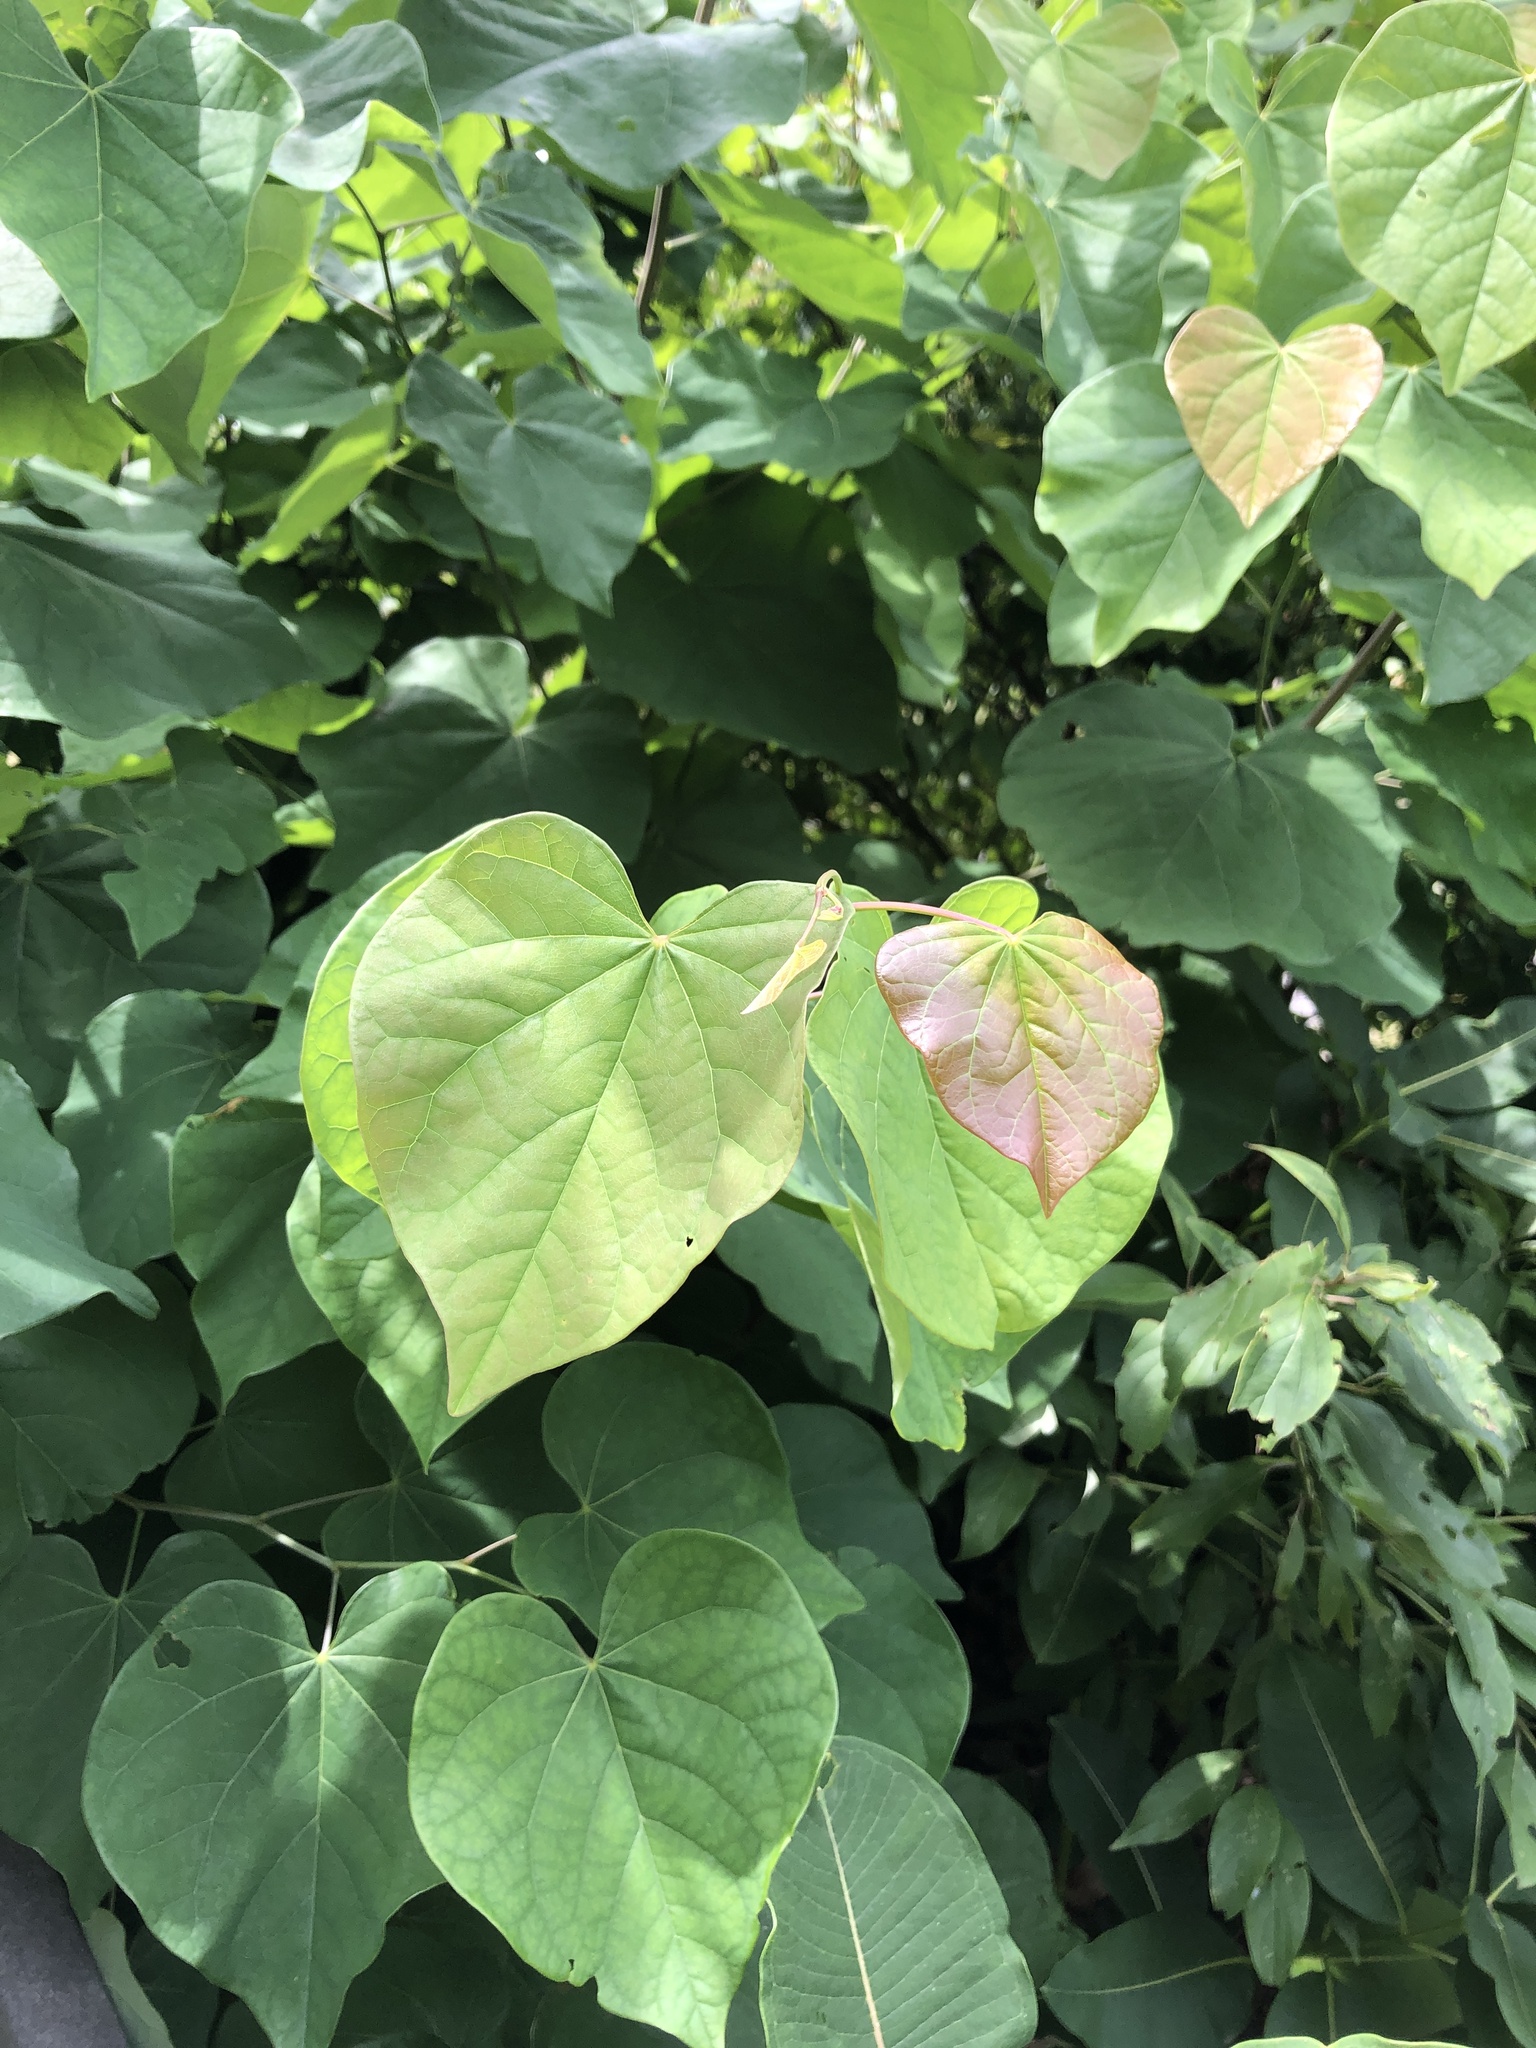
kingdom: Plantae
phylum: Tracheophyta
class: Magnoliopsida
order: Fabales
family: Fabaceae
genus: Cercis
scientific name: Cercis canadensis
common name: Eastern redbud
